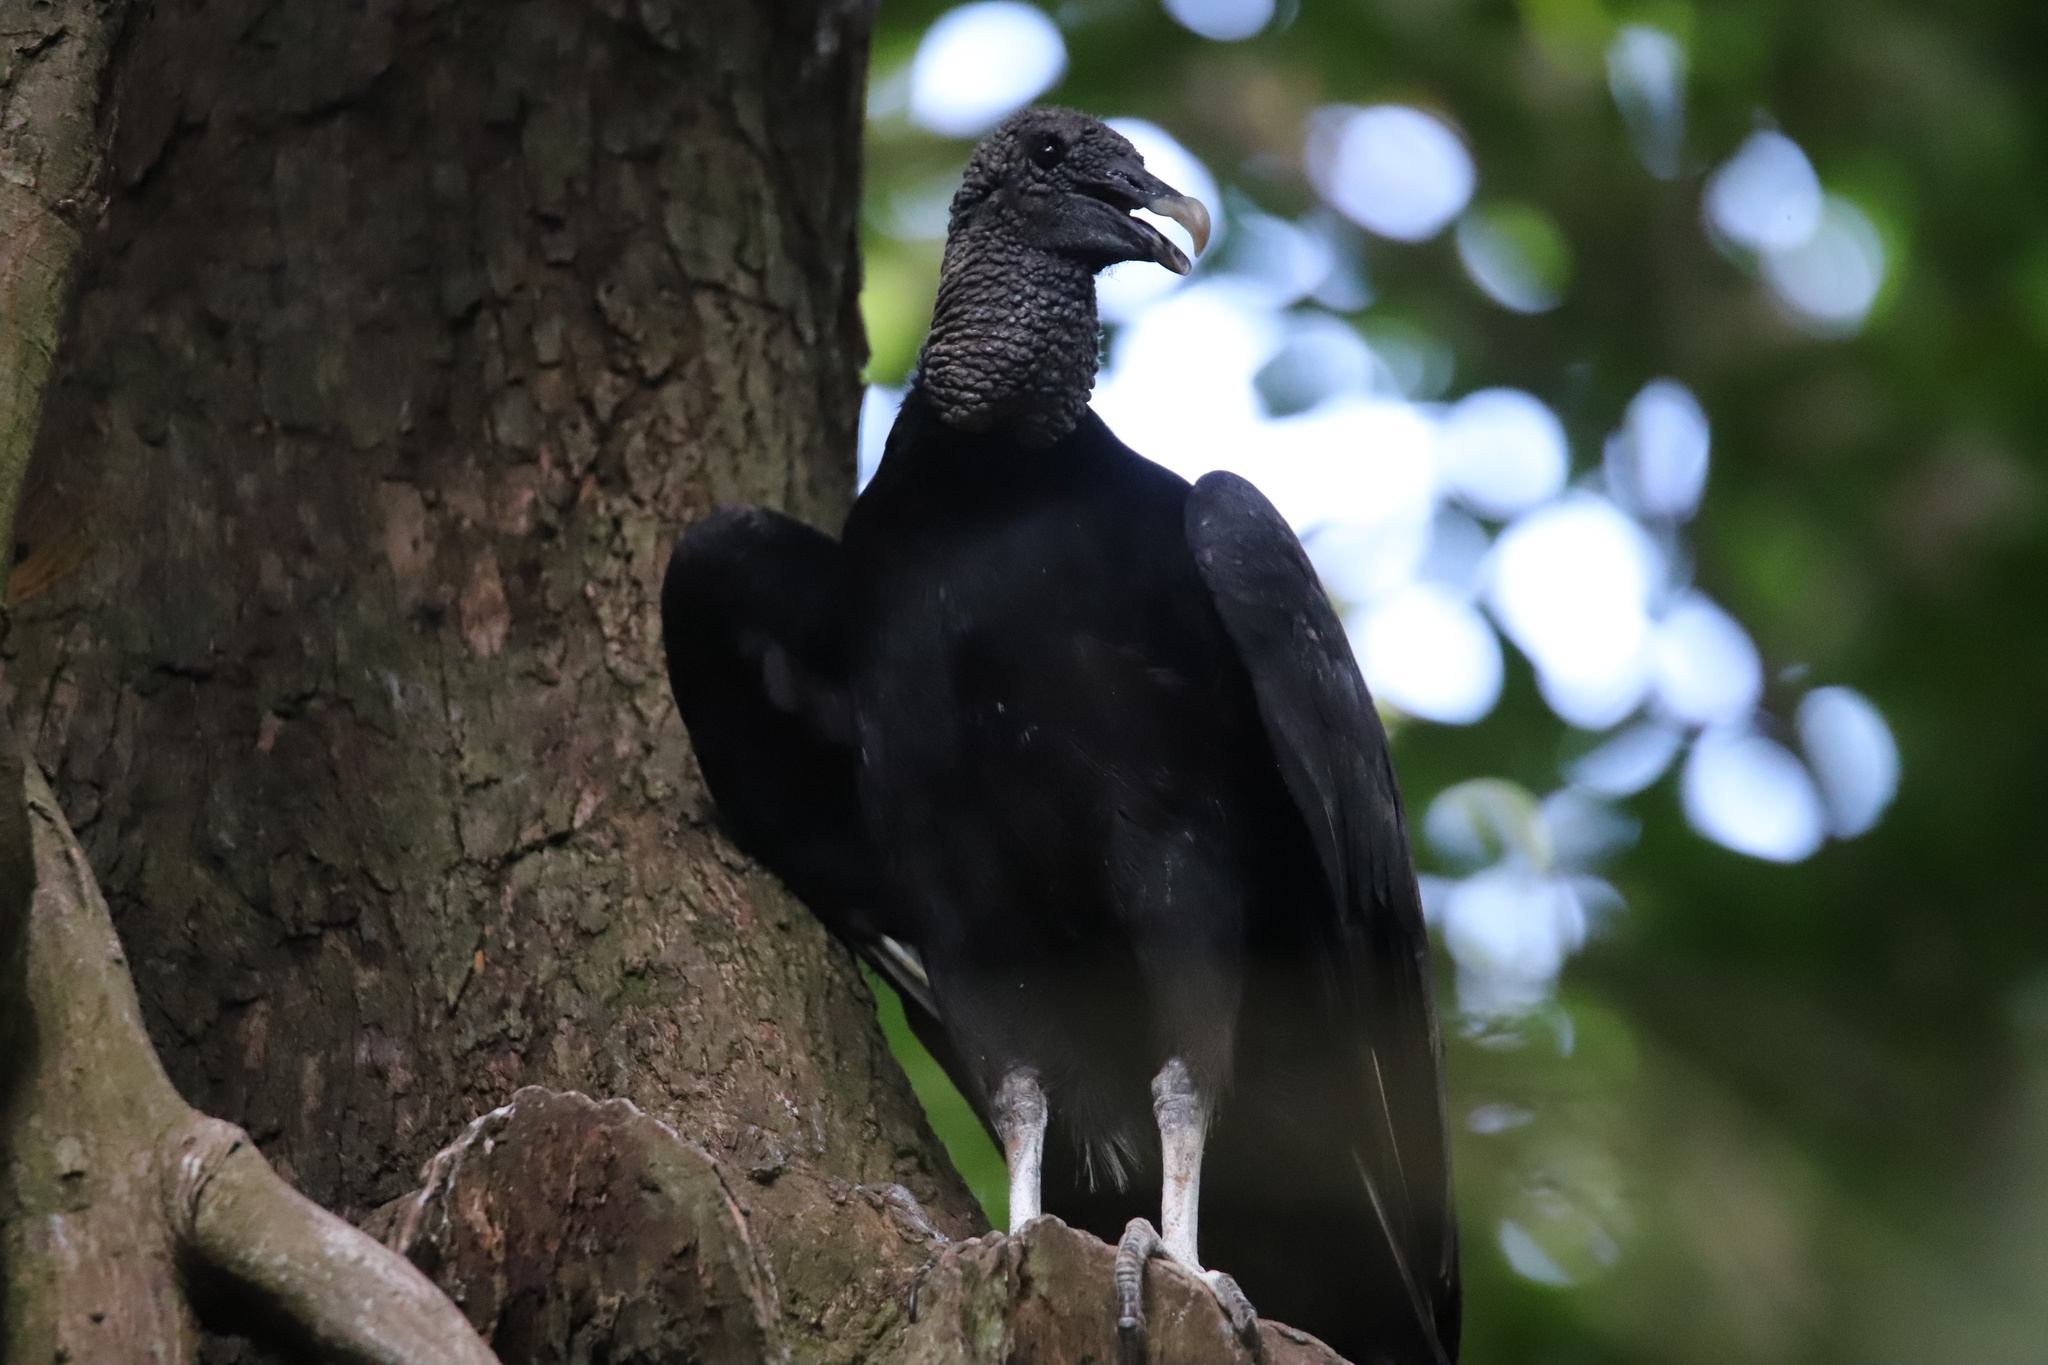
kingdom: Animalia
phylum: Chordata
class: Aves
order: Accipitriformes
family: Cathartidae
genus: Coragyps
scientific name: Coragyps atratus
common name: Black vulture
